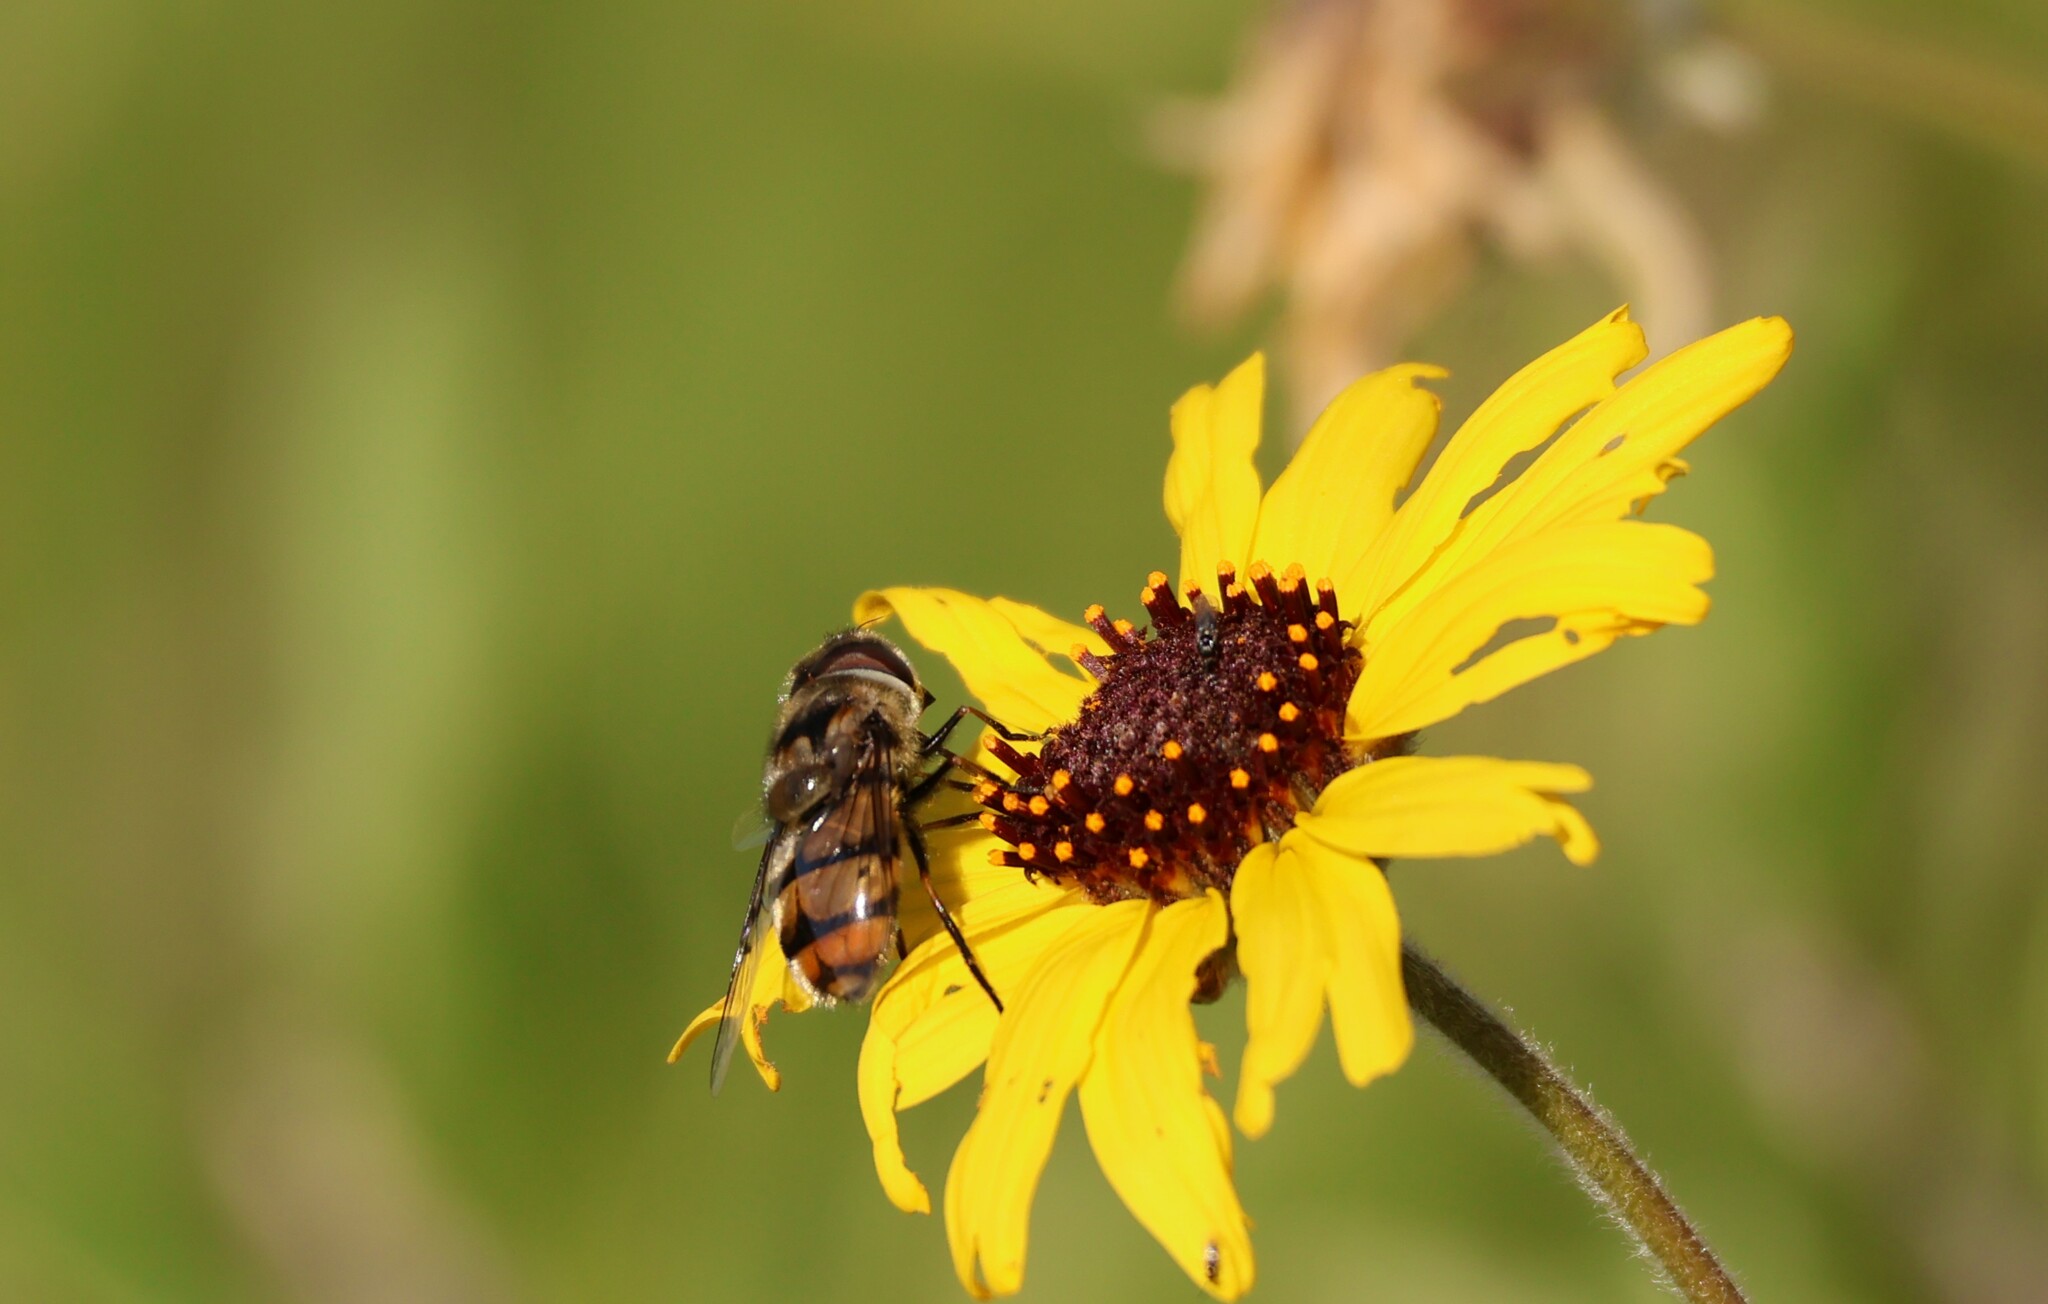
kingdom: Animalia
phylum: Arthropoda
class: Insecta
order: Diptera
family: Syrphidae
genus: Copestylum
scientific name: Copestylum avidum
